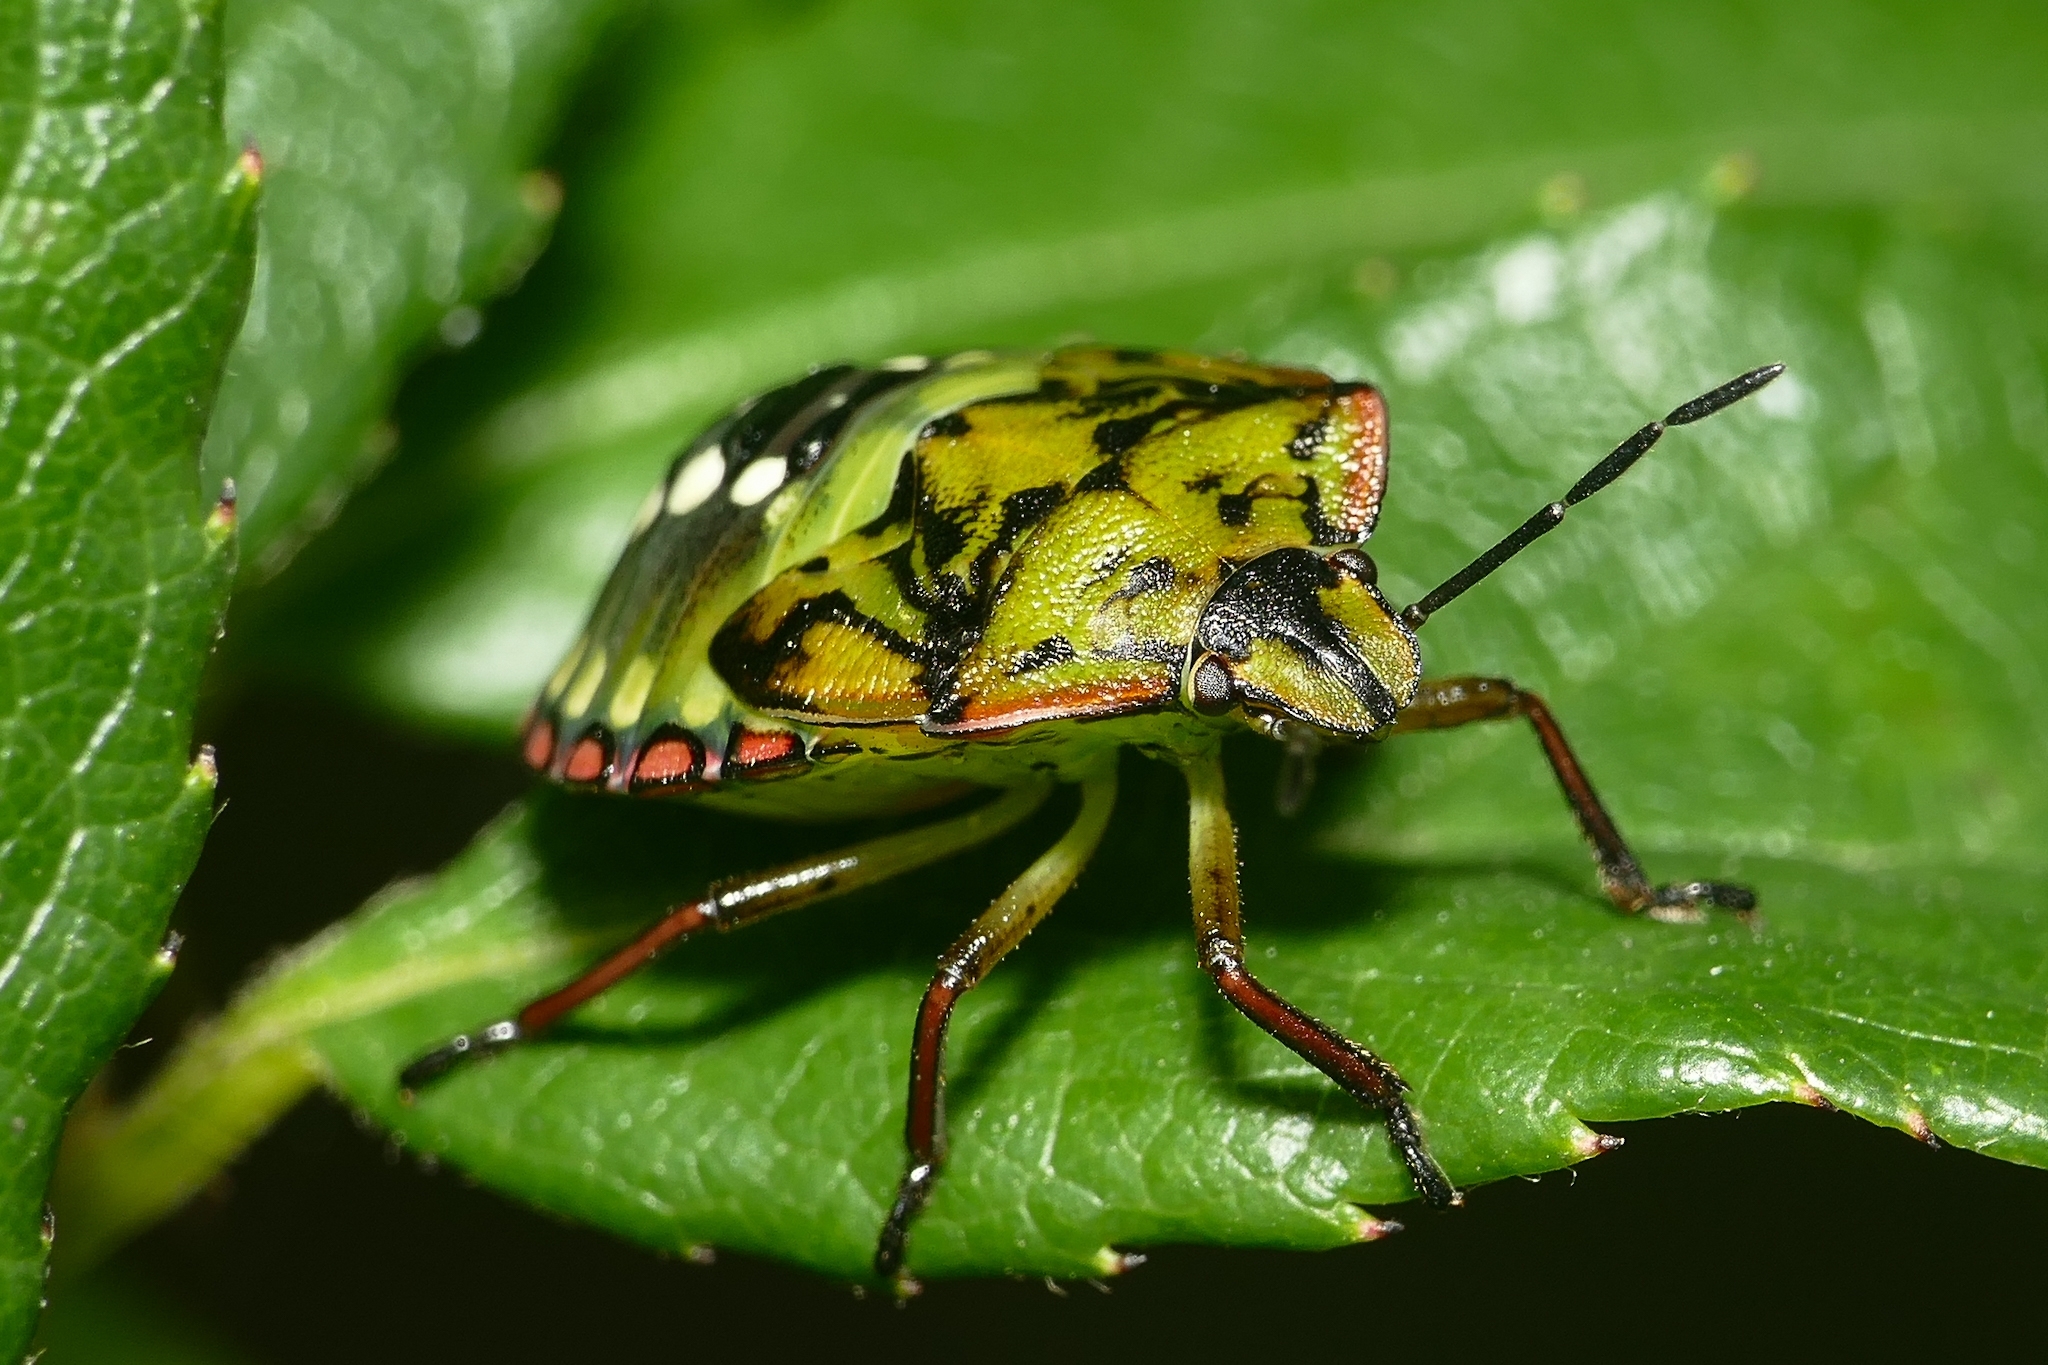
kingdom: Animalia
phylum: Arthropoda
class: Insecta
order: Hemiptera
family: Pentatomidae
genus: Nezara
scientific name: Nezara viridula
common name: Southern green stink bug
